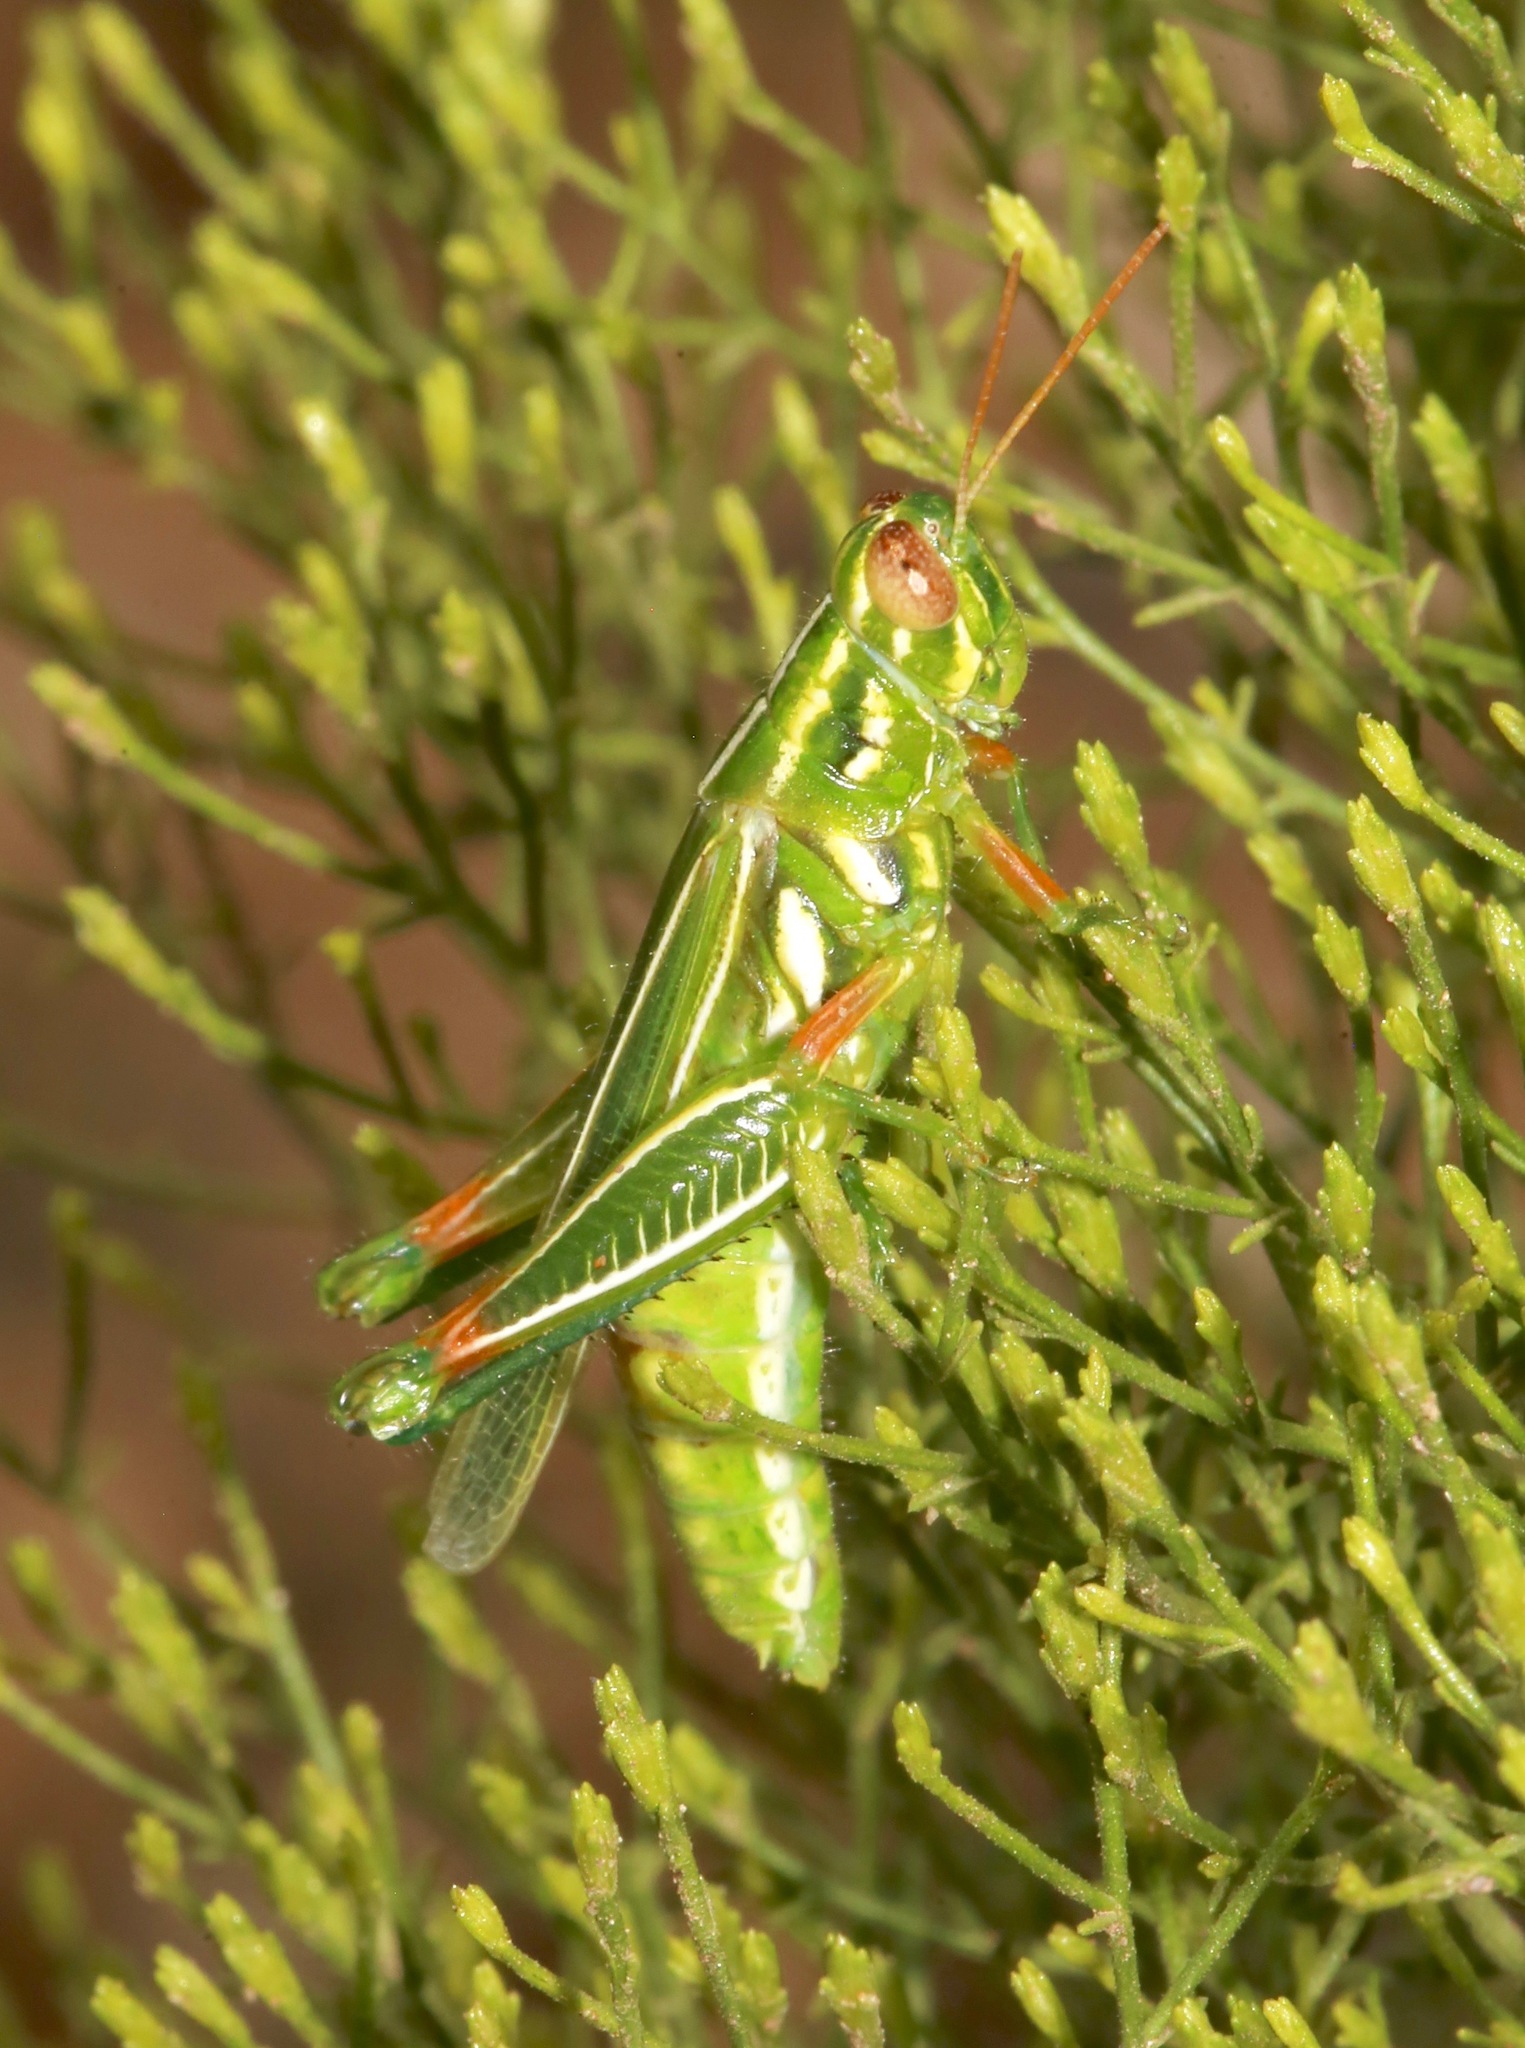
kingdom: Animalia
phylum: Arthropoda
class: Insecta
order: Orthoptera
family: Acrididae
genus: Hesperotettix
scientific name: Hesperotettix viridis
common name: Meadow purple-striped grasshopper
